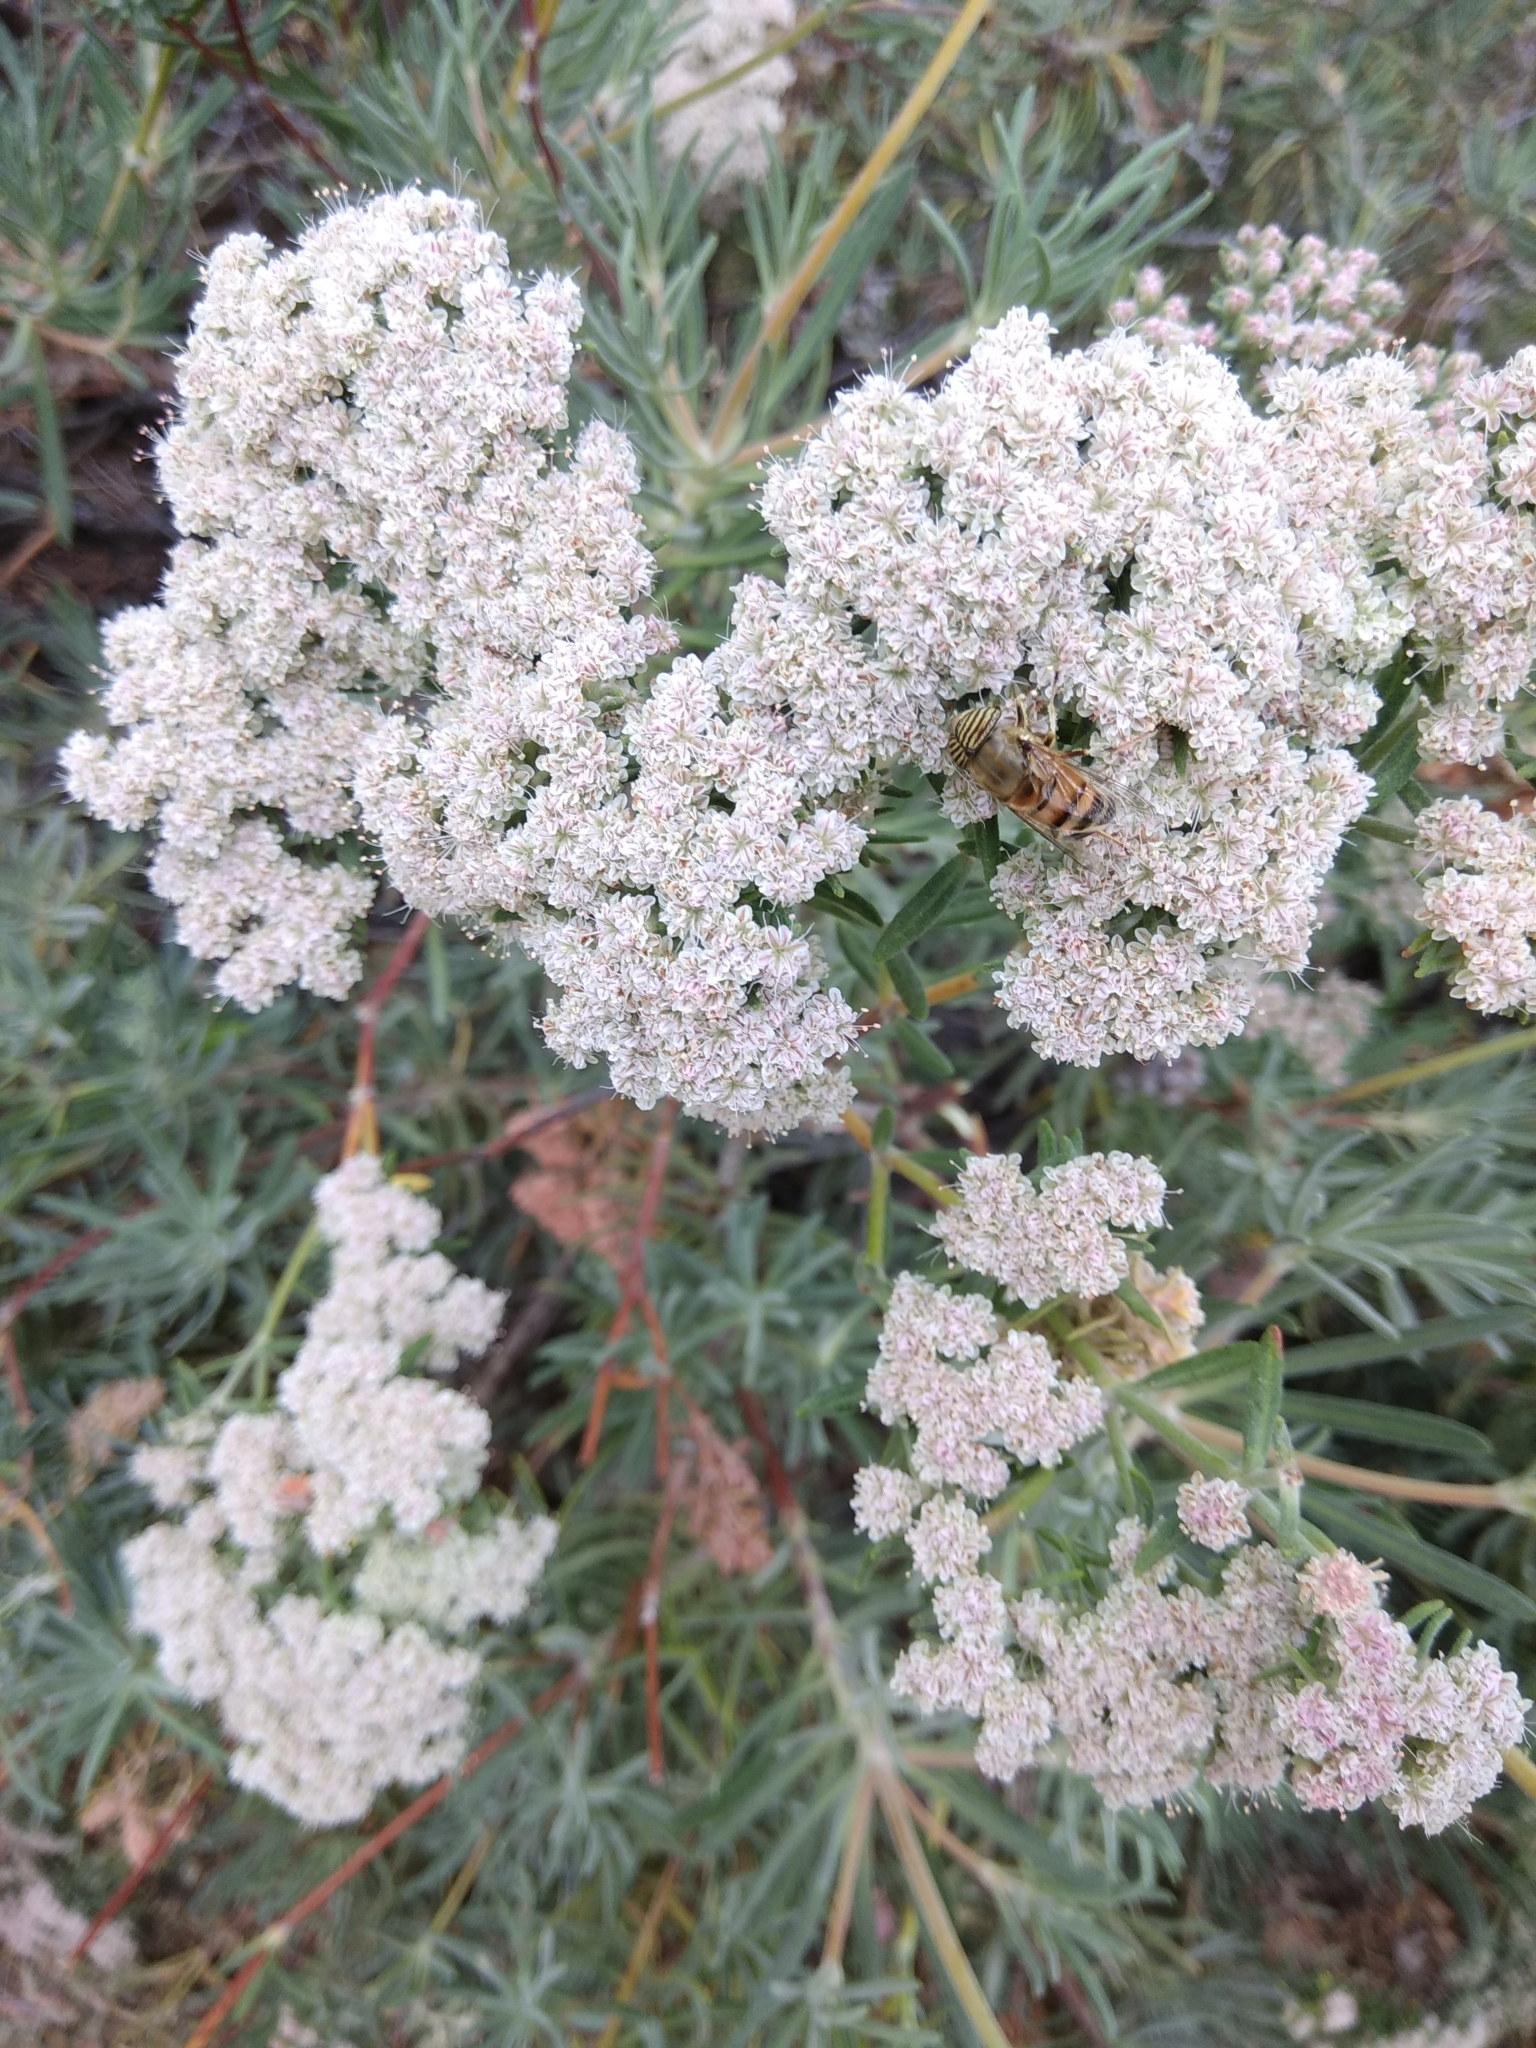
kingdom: Animalia
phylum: Arthropoda
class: Insecta
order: Diptera
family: Syrphidae
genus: Eristalinus
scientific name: Eristalinus taeniops
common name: Syrphid fly
